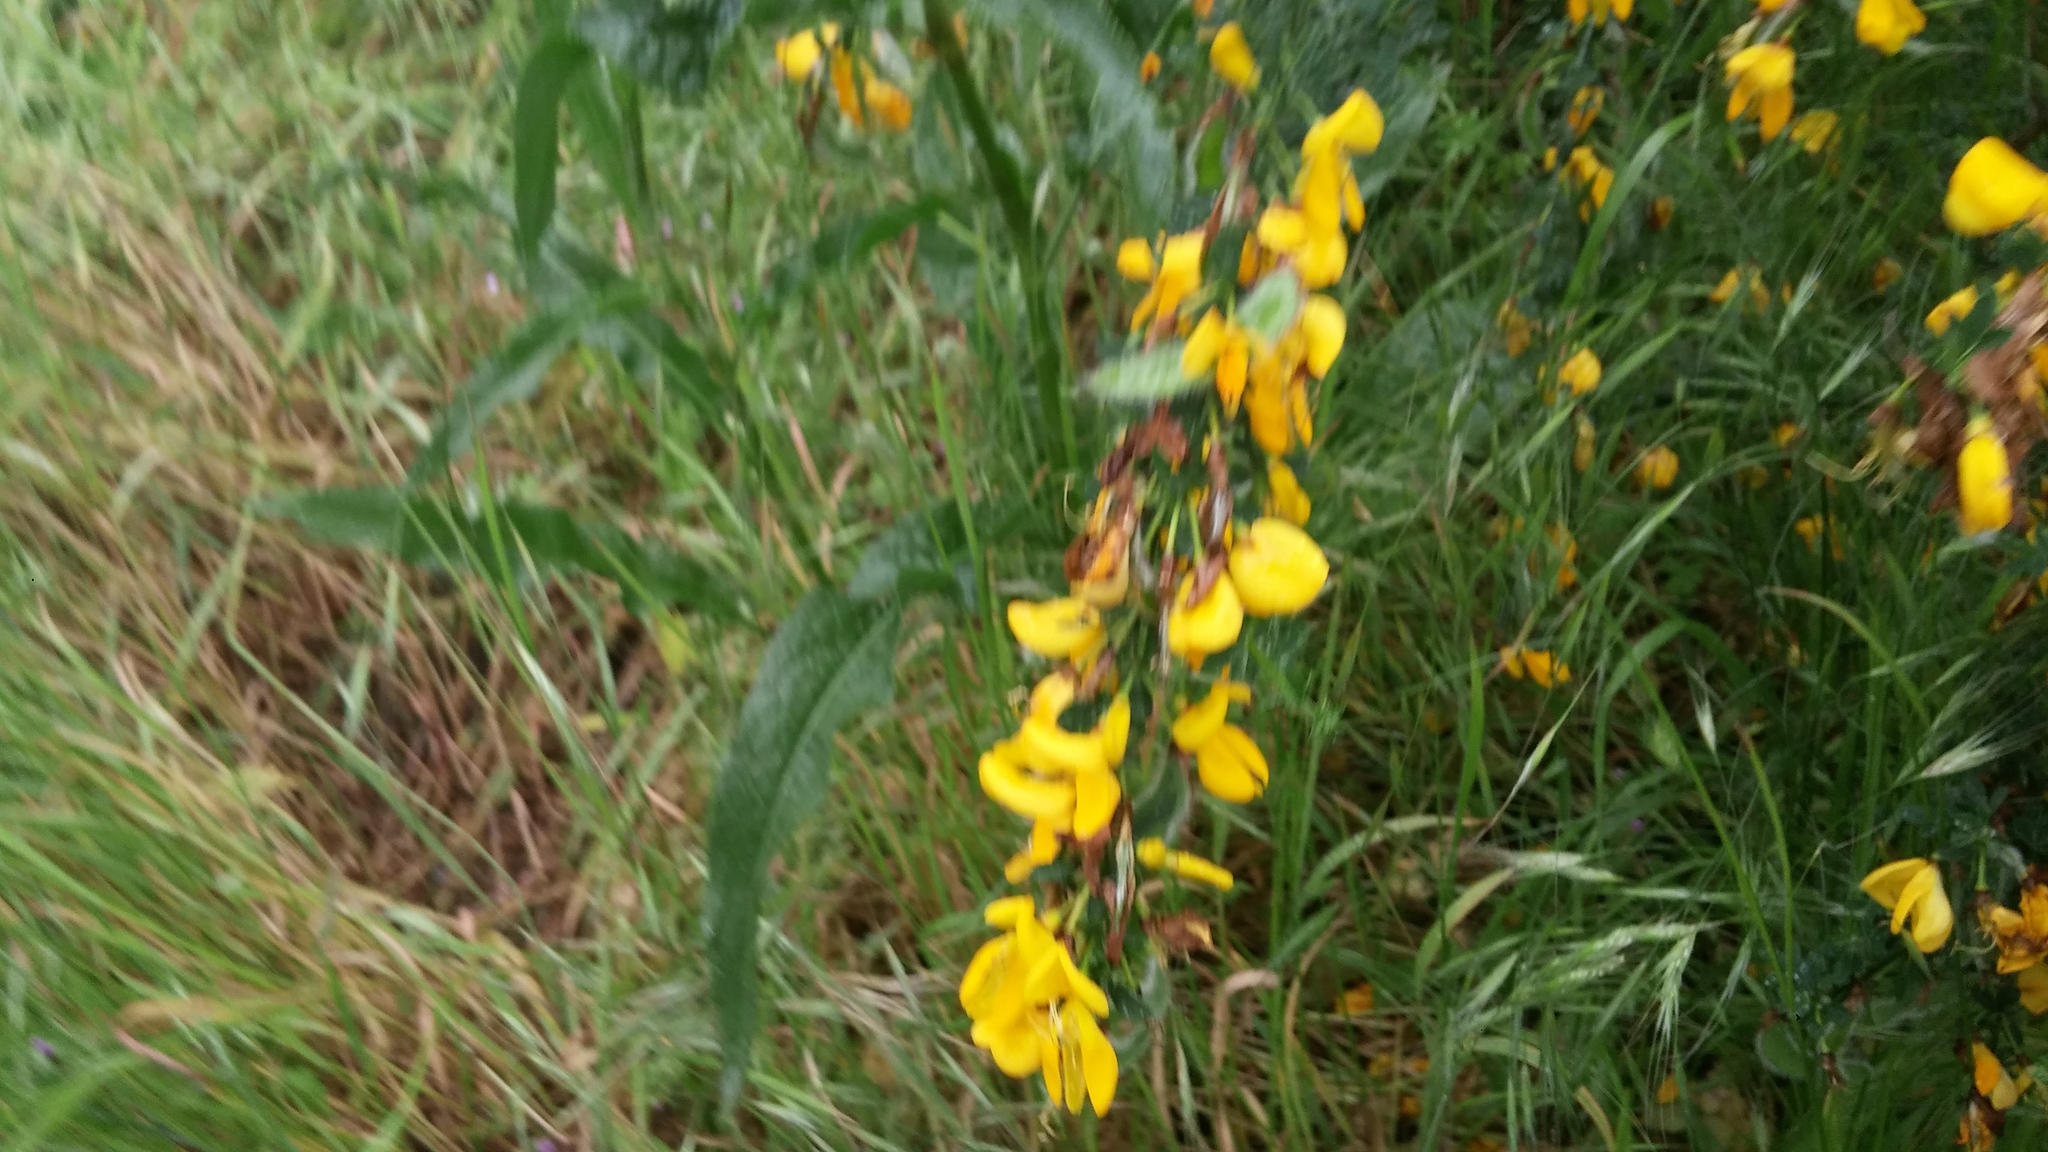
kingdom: Plantae
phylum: Tracheophyta
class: Magnoliopsida
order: Fabales
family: Fabaceae
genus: Cytisus
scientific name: Cytisus scoparius
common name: Scotch broom
